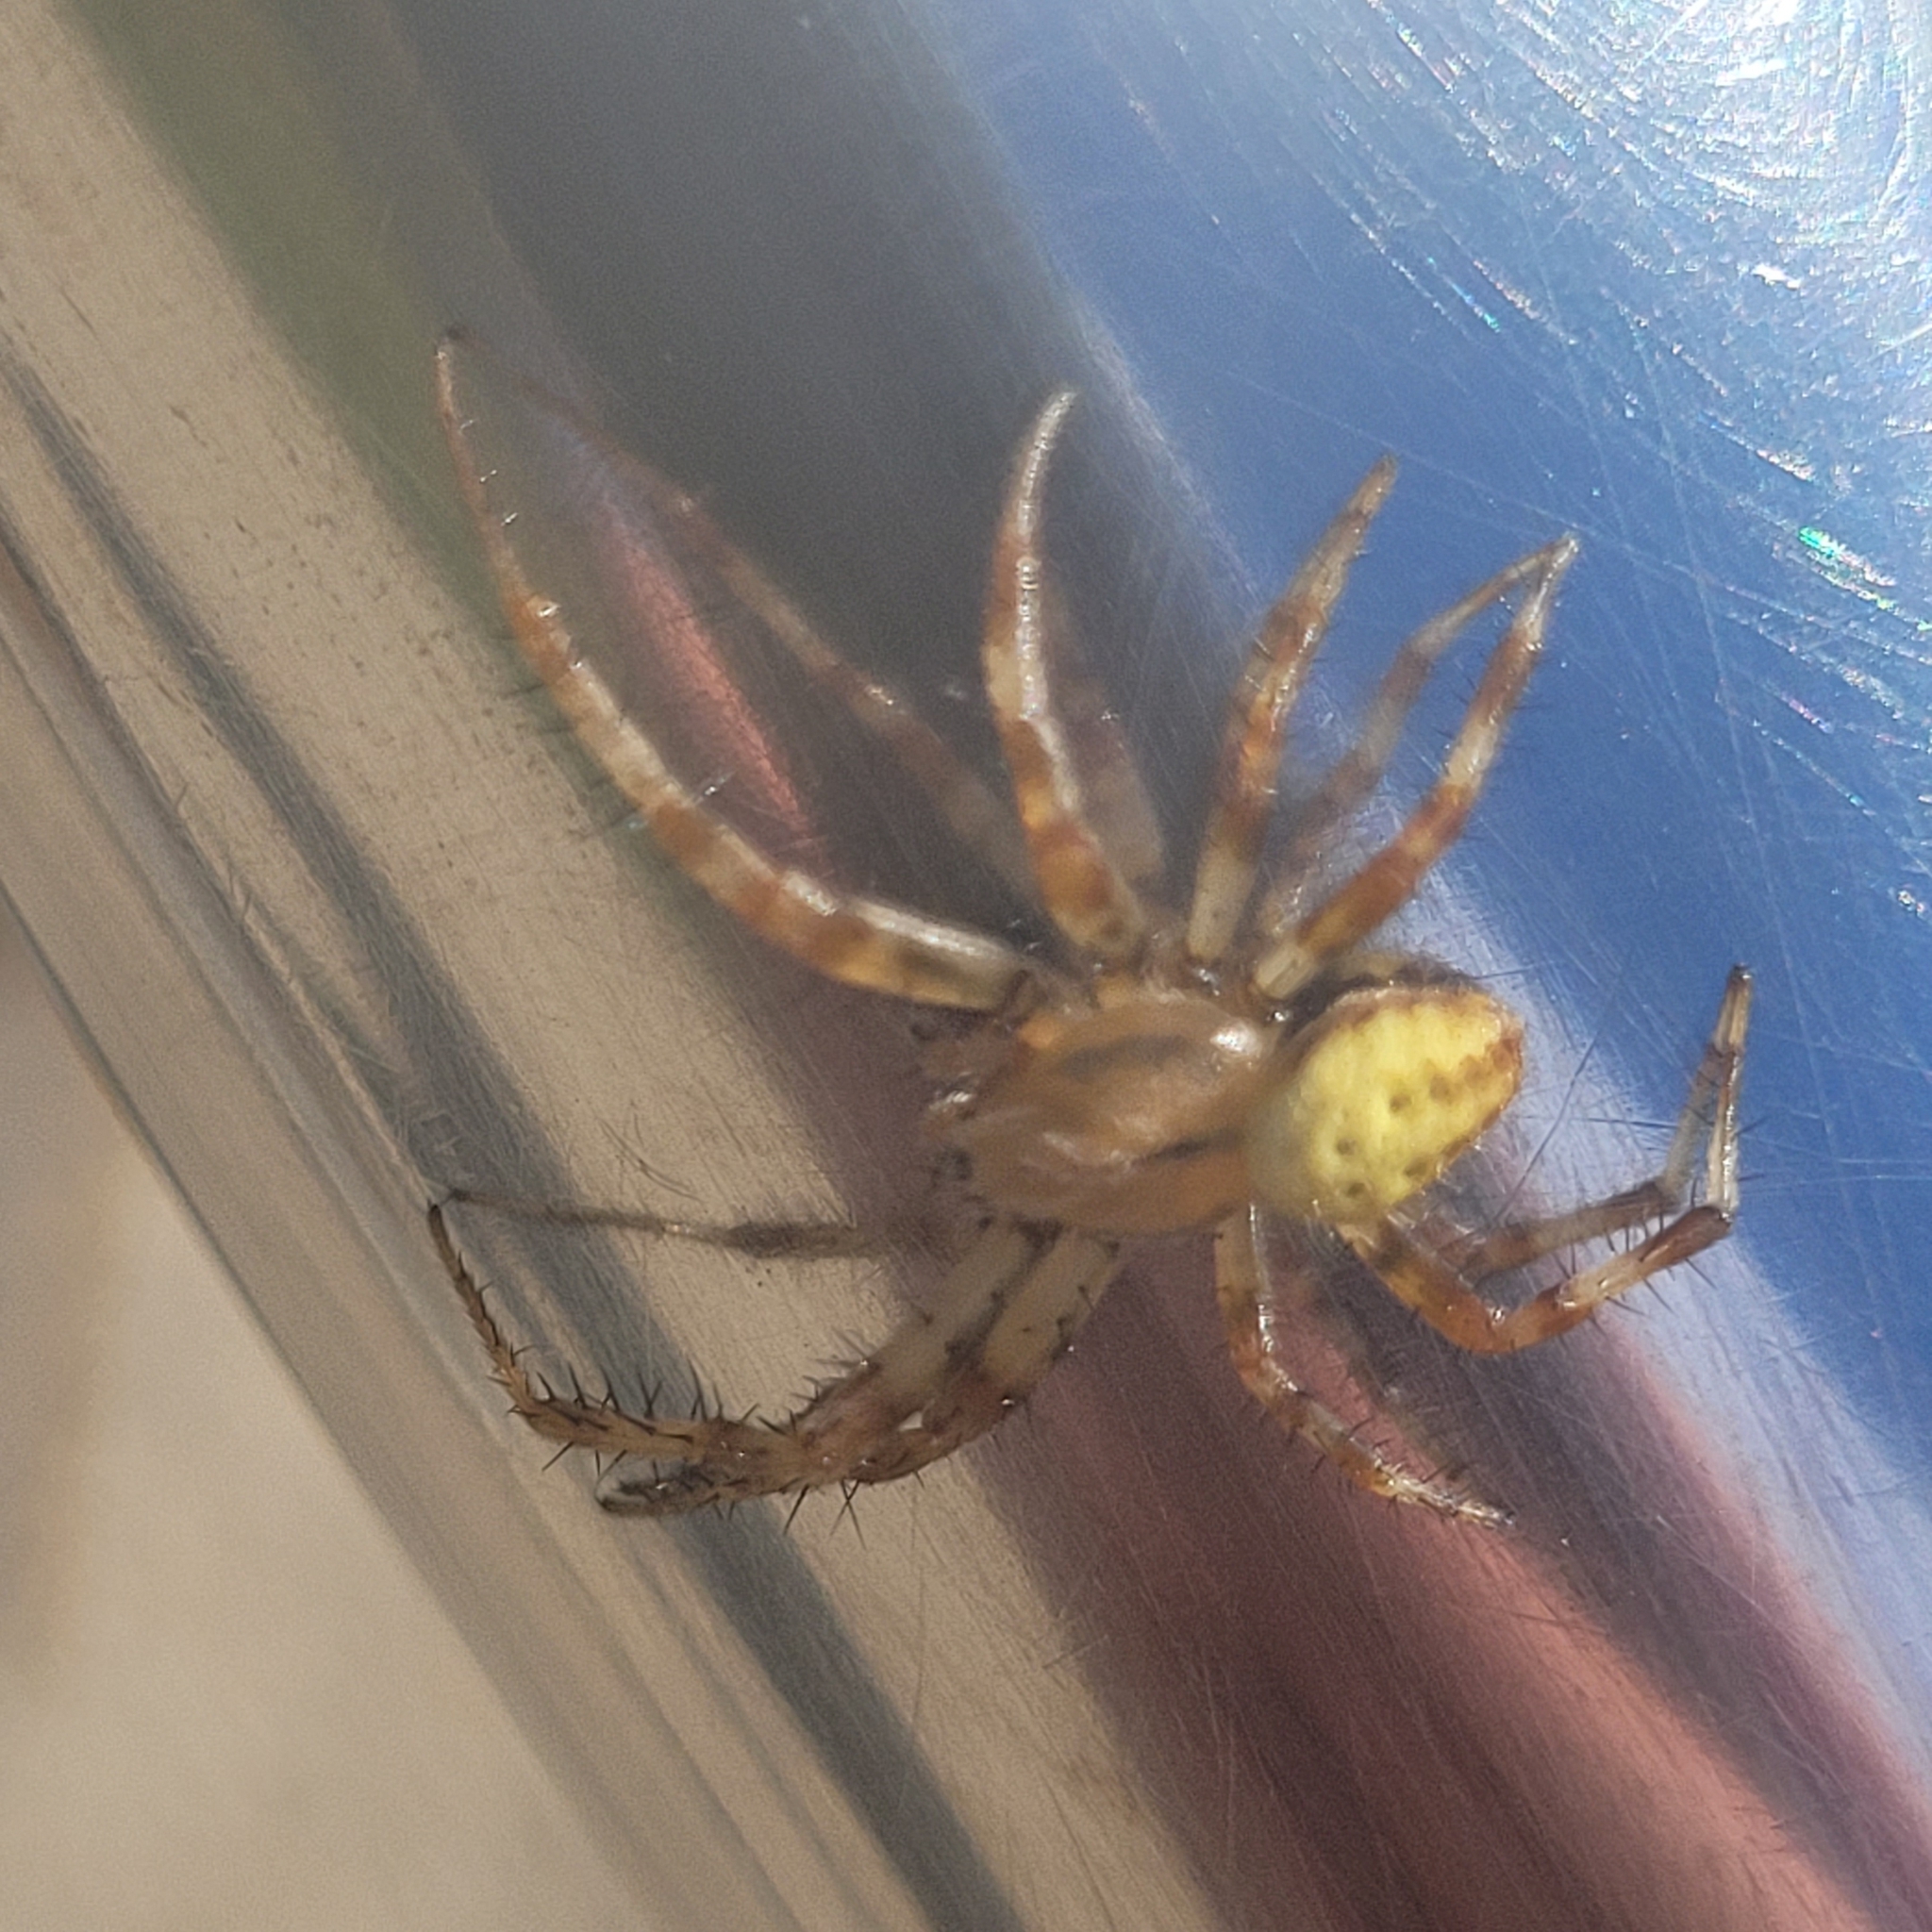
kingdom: Animalia
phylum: Arthropoda
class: Arachnida
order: Araneae
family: Araneidae
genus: Araneus
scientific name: Araneus quadratus
